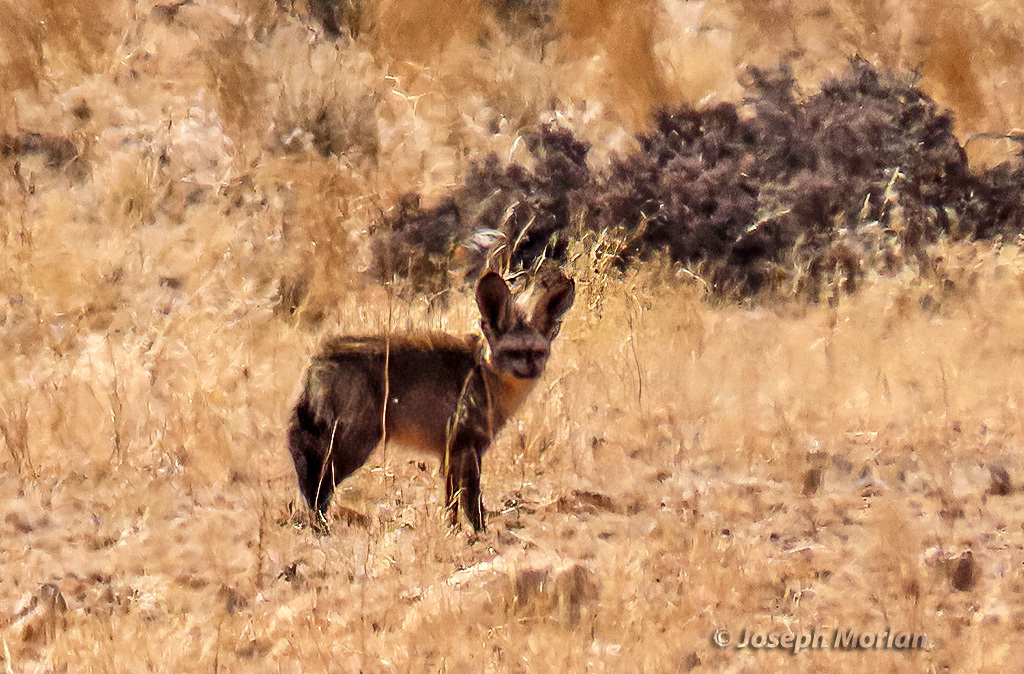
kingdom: Animalia
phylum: Chordata
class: Mammalia
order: Carnivora
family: Canidae
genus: Otocyon
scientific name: Otocyon megalotis
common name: Bat-eared fox
